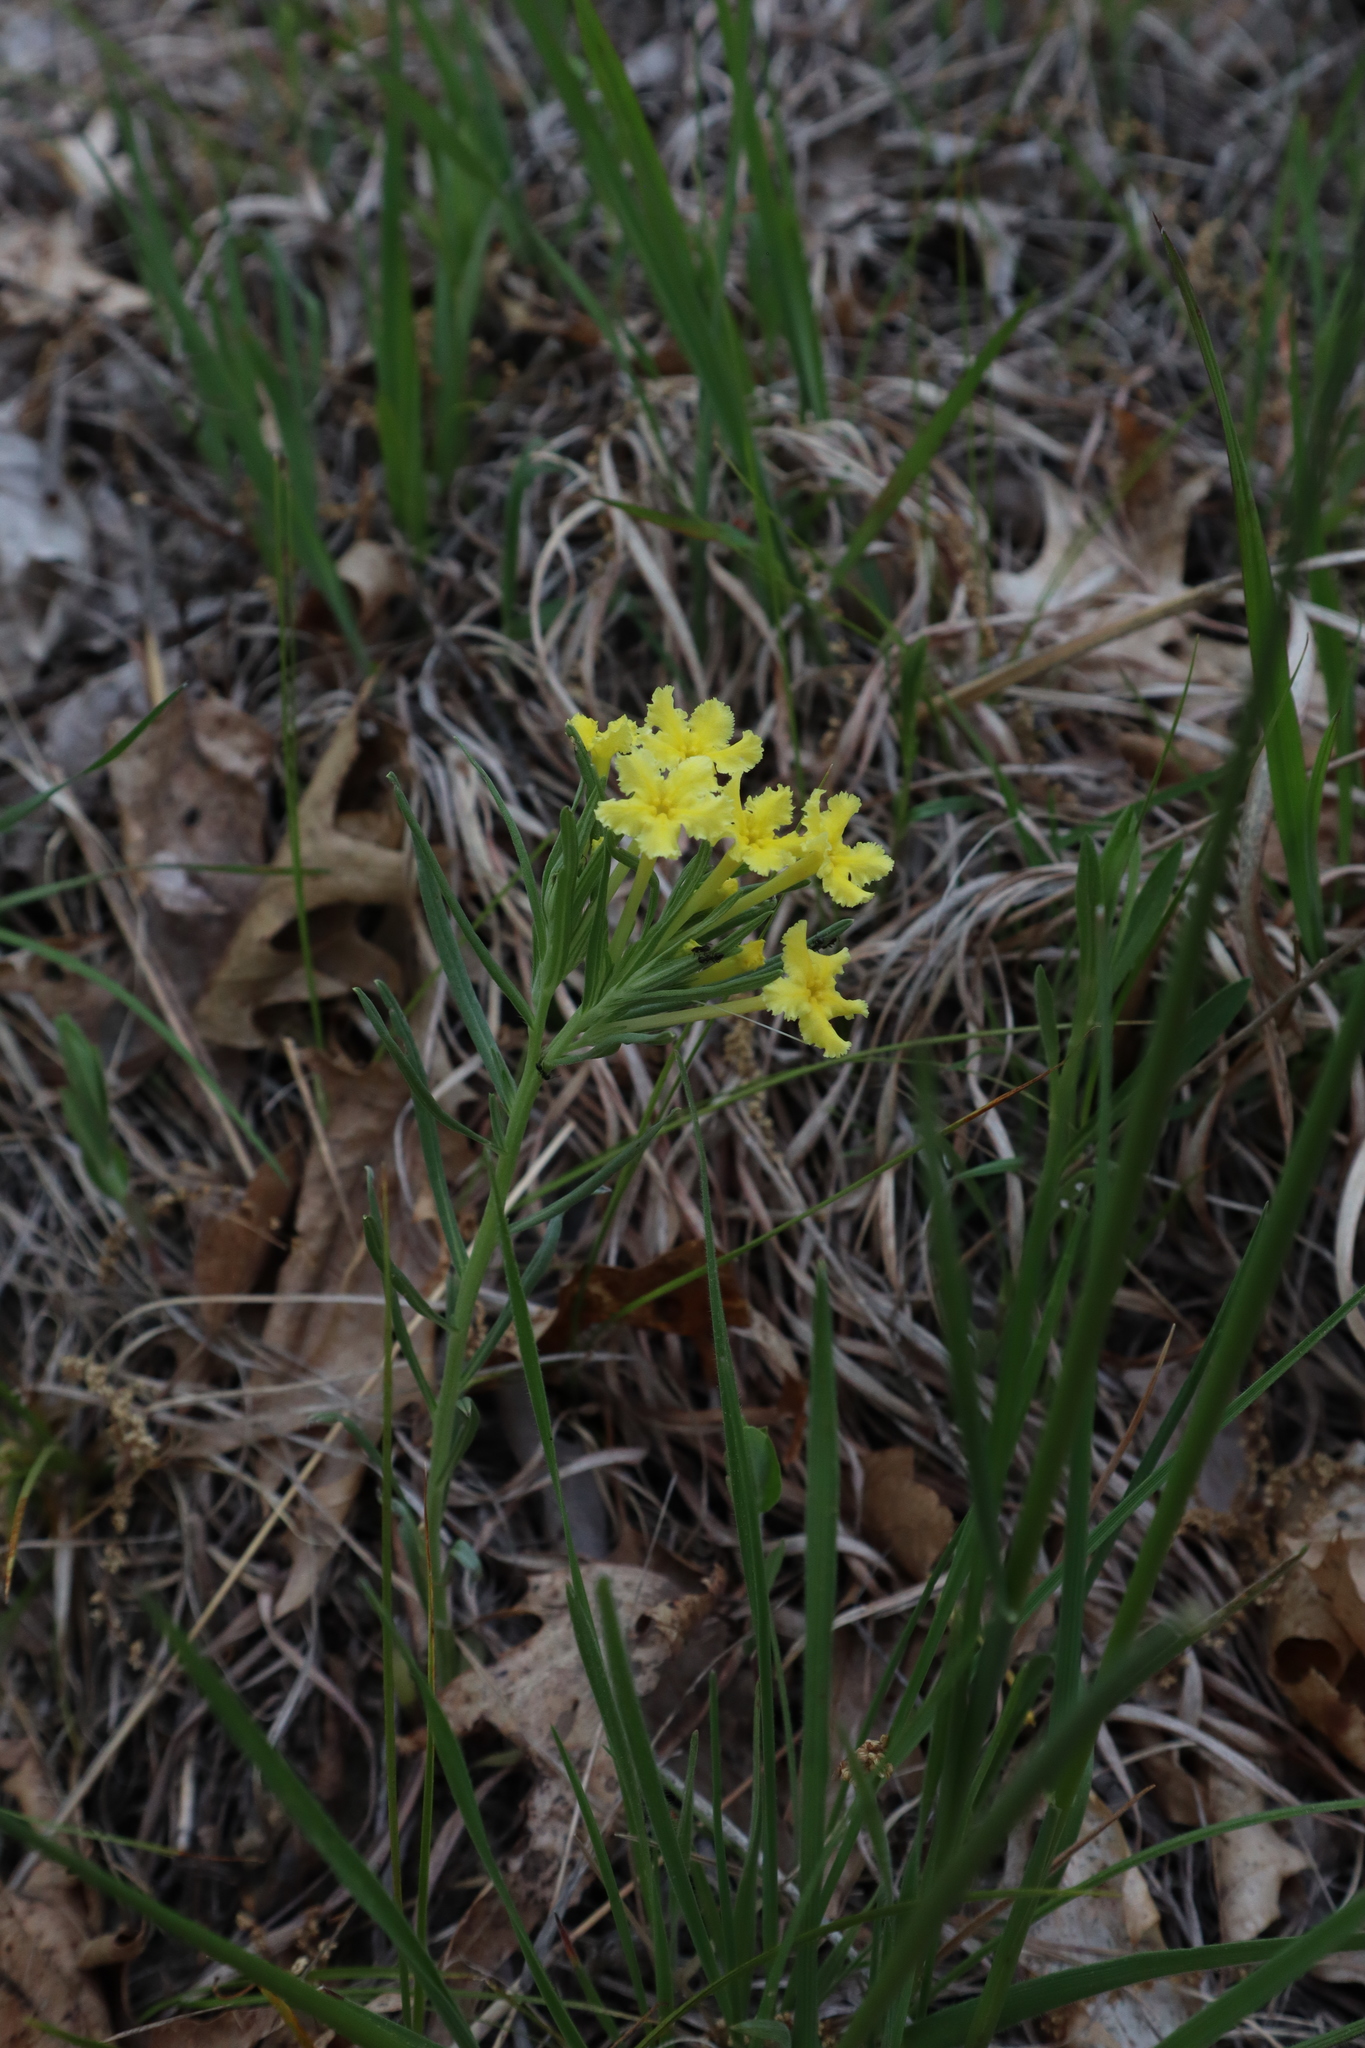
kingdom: Plantae
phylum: Tracheophyta
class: Magnoliopsida
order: Boraginales
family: Boraginaceae
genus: Lithospermum
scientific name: Lithospermum incisum
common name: Fringed gromwell
